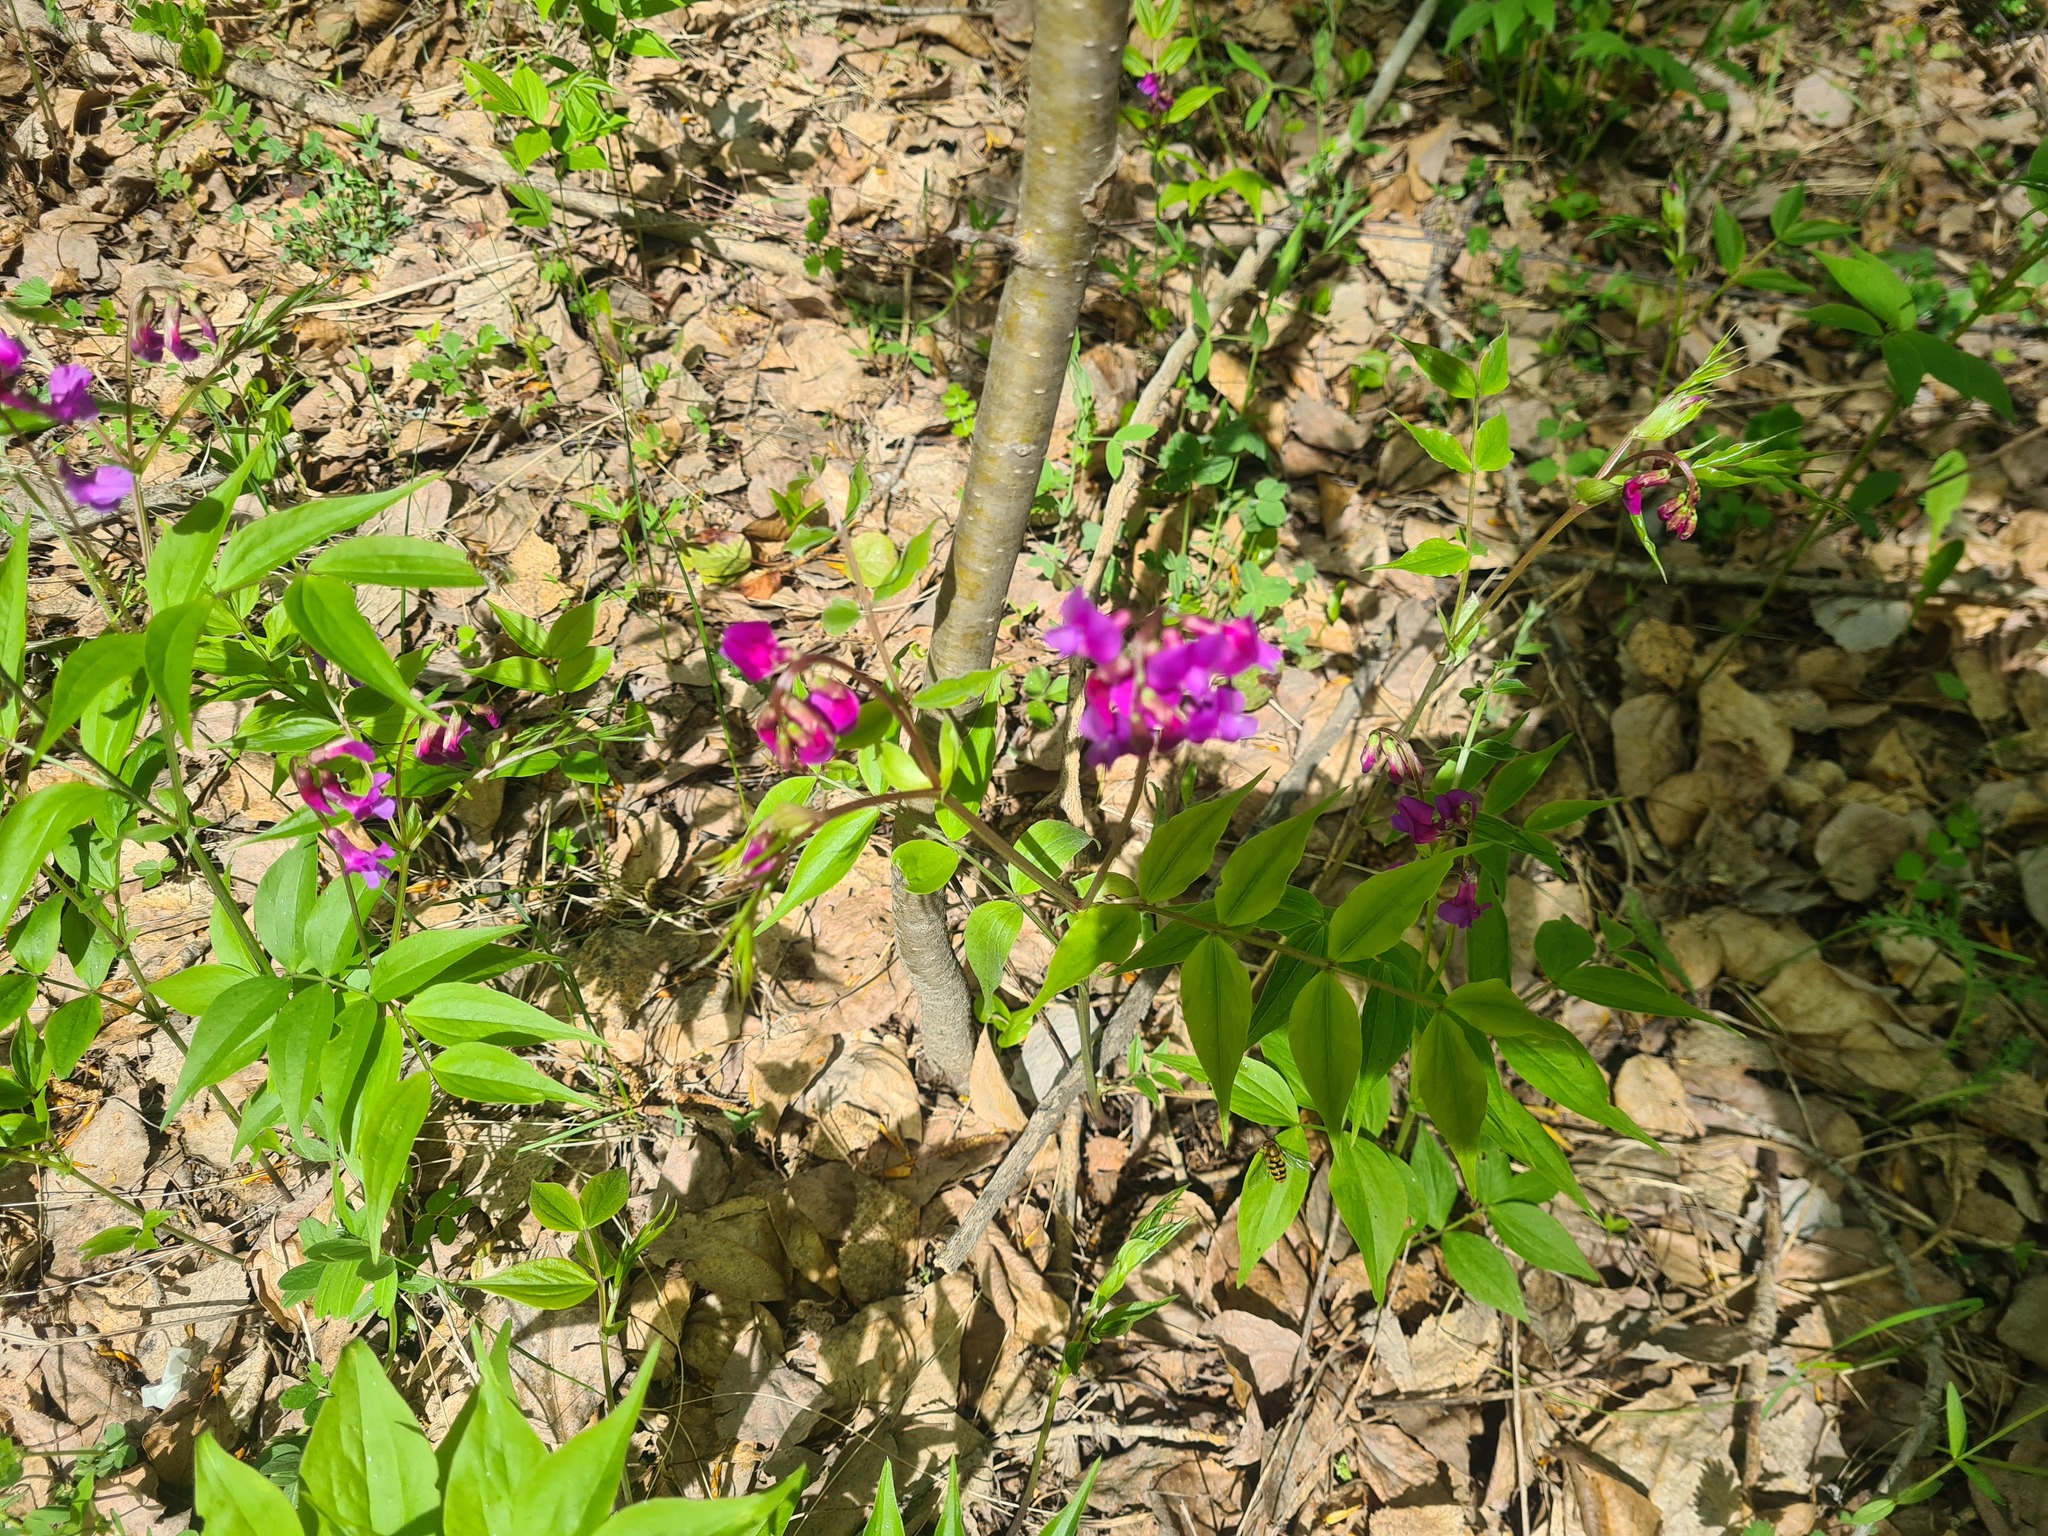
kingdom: Plantae
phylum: Tracheophyta
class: Magnoliopsida
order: Fabales
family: Fabaceae
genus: Lathyrus
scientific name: Lathyrus vernus
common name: Spring pea
